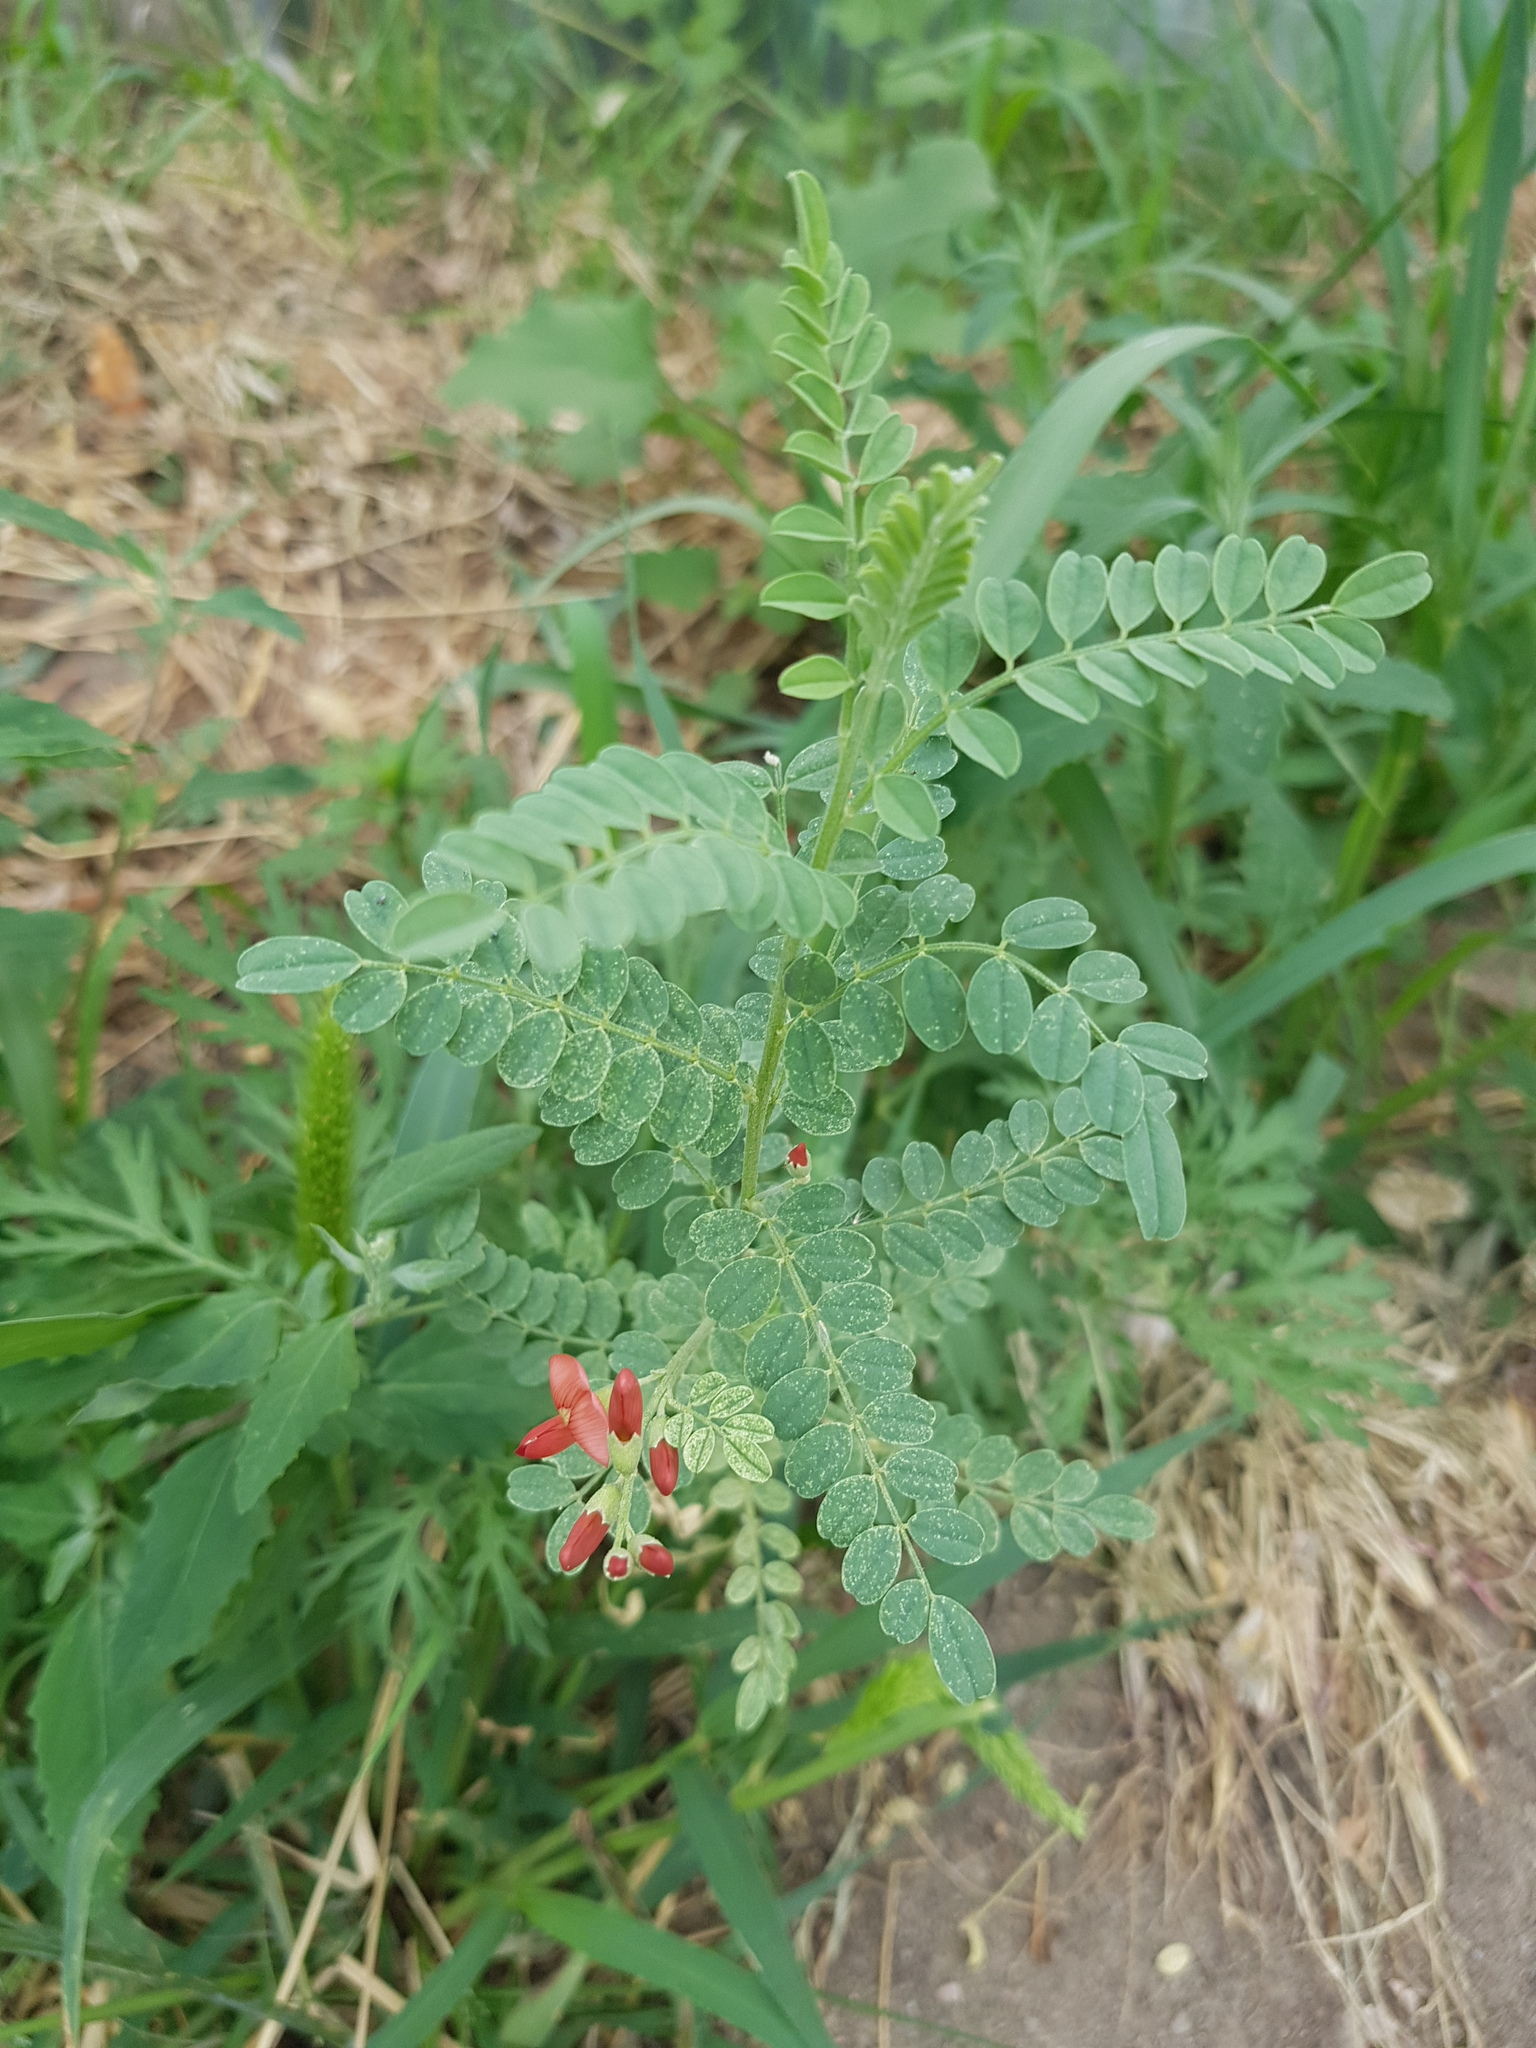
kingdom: Plantae
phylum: Tracheophyta
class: Magnoliopsida
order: Fabales
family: Fabaceae
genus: Sphaerophysa
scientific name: Sphaerophysa salsula
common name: Alkali swainsonpea
